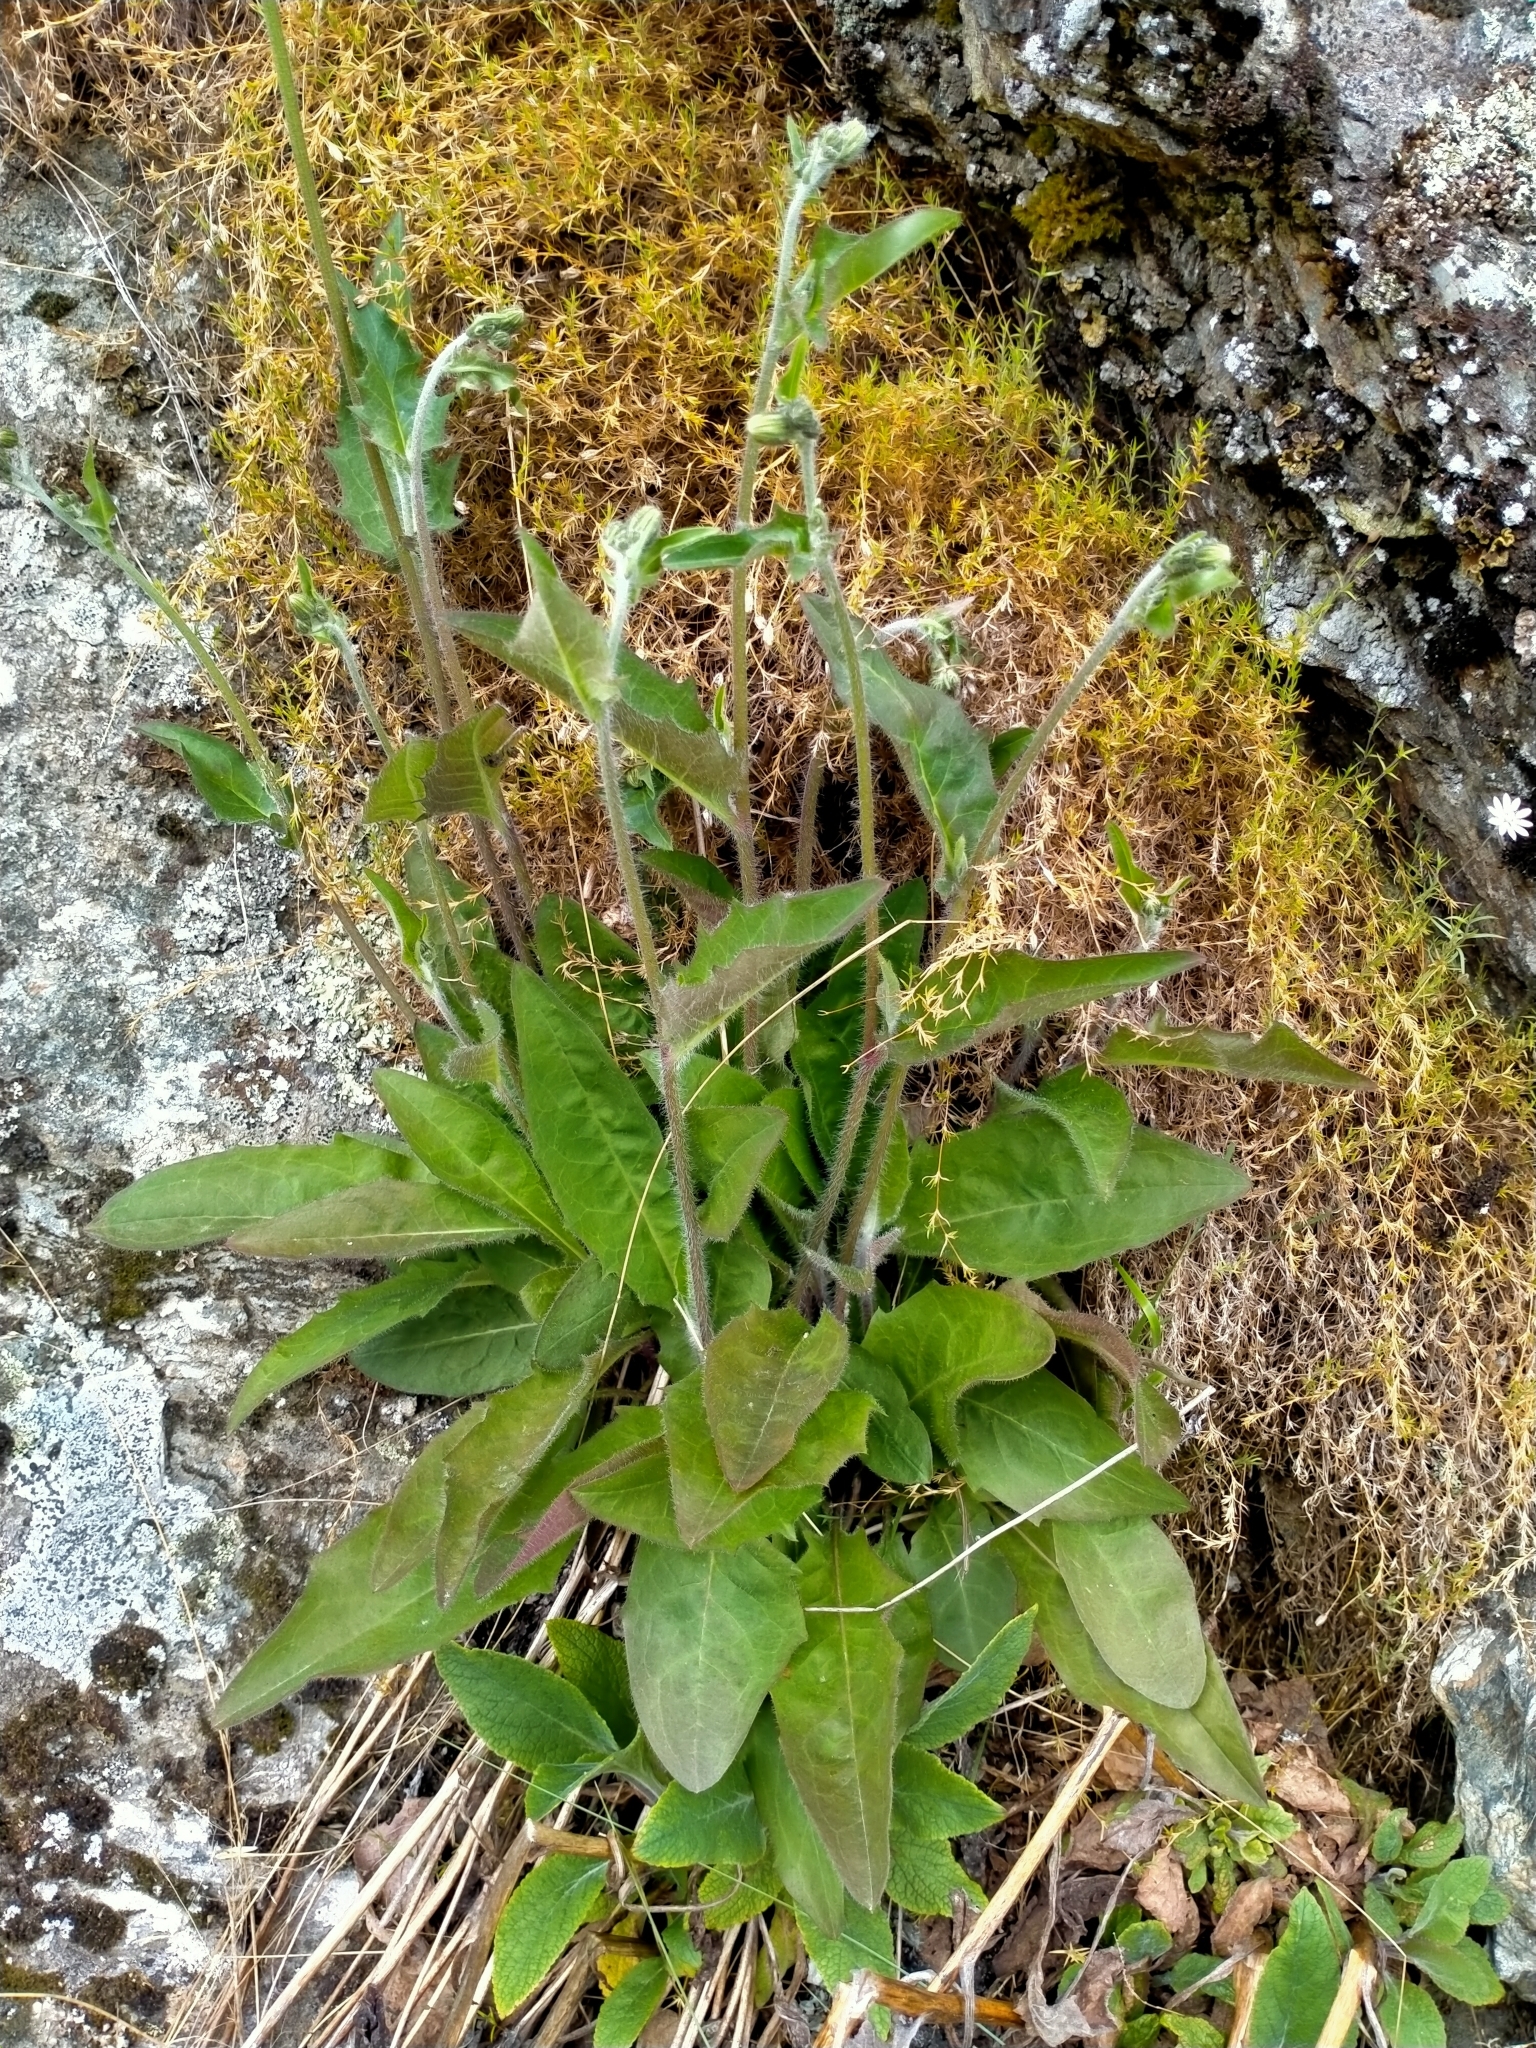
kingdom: Plantae
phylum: Tracheophyta
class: Magnoliopsida
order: Asterales
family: Asteraceae
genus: Hieracium
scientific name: Hieracium lepidulum
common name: Irregular-toothed hawkweed
